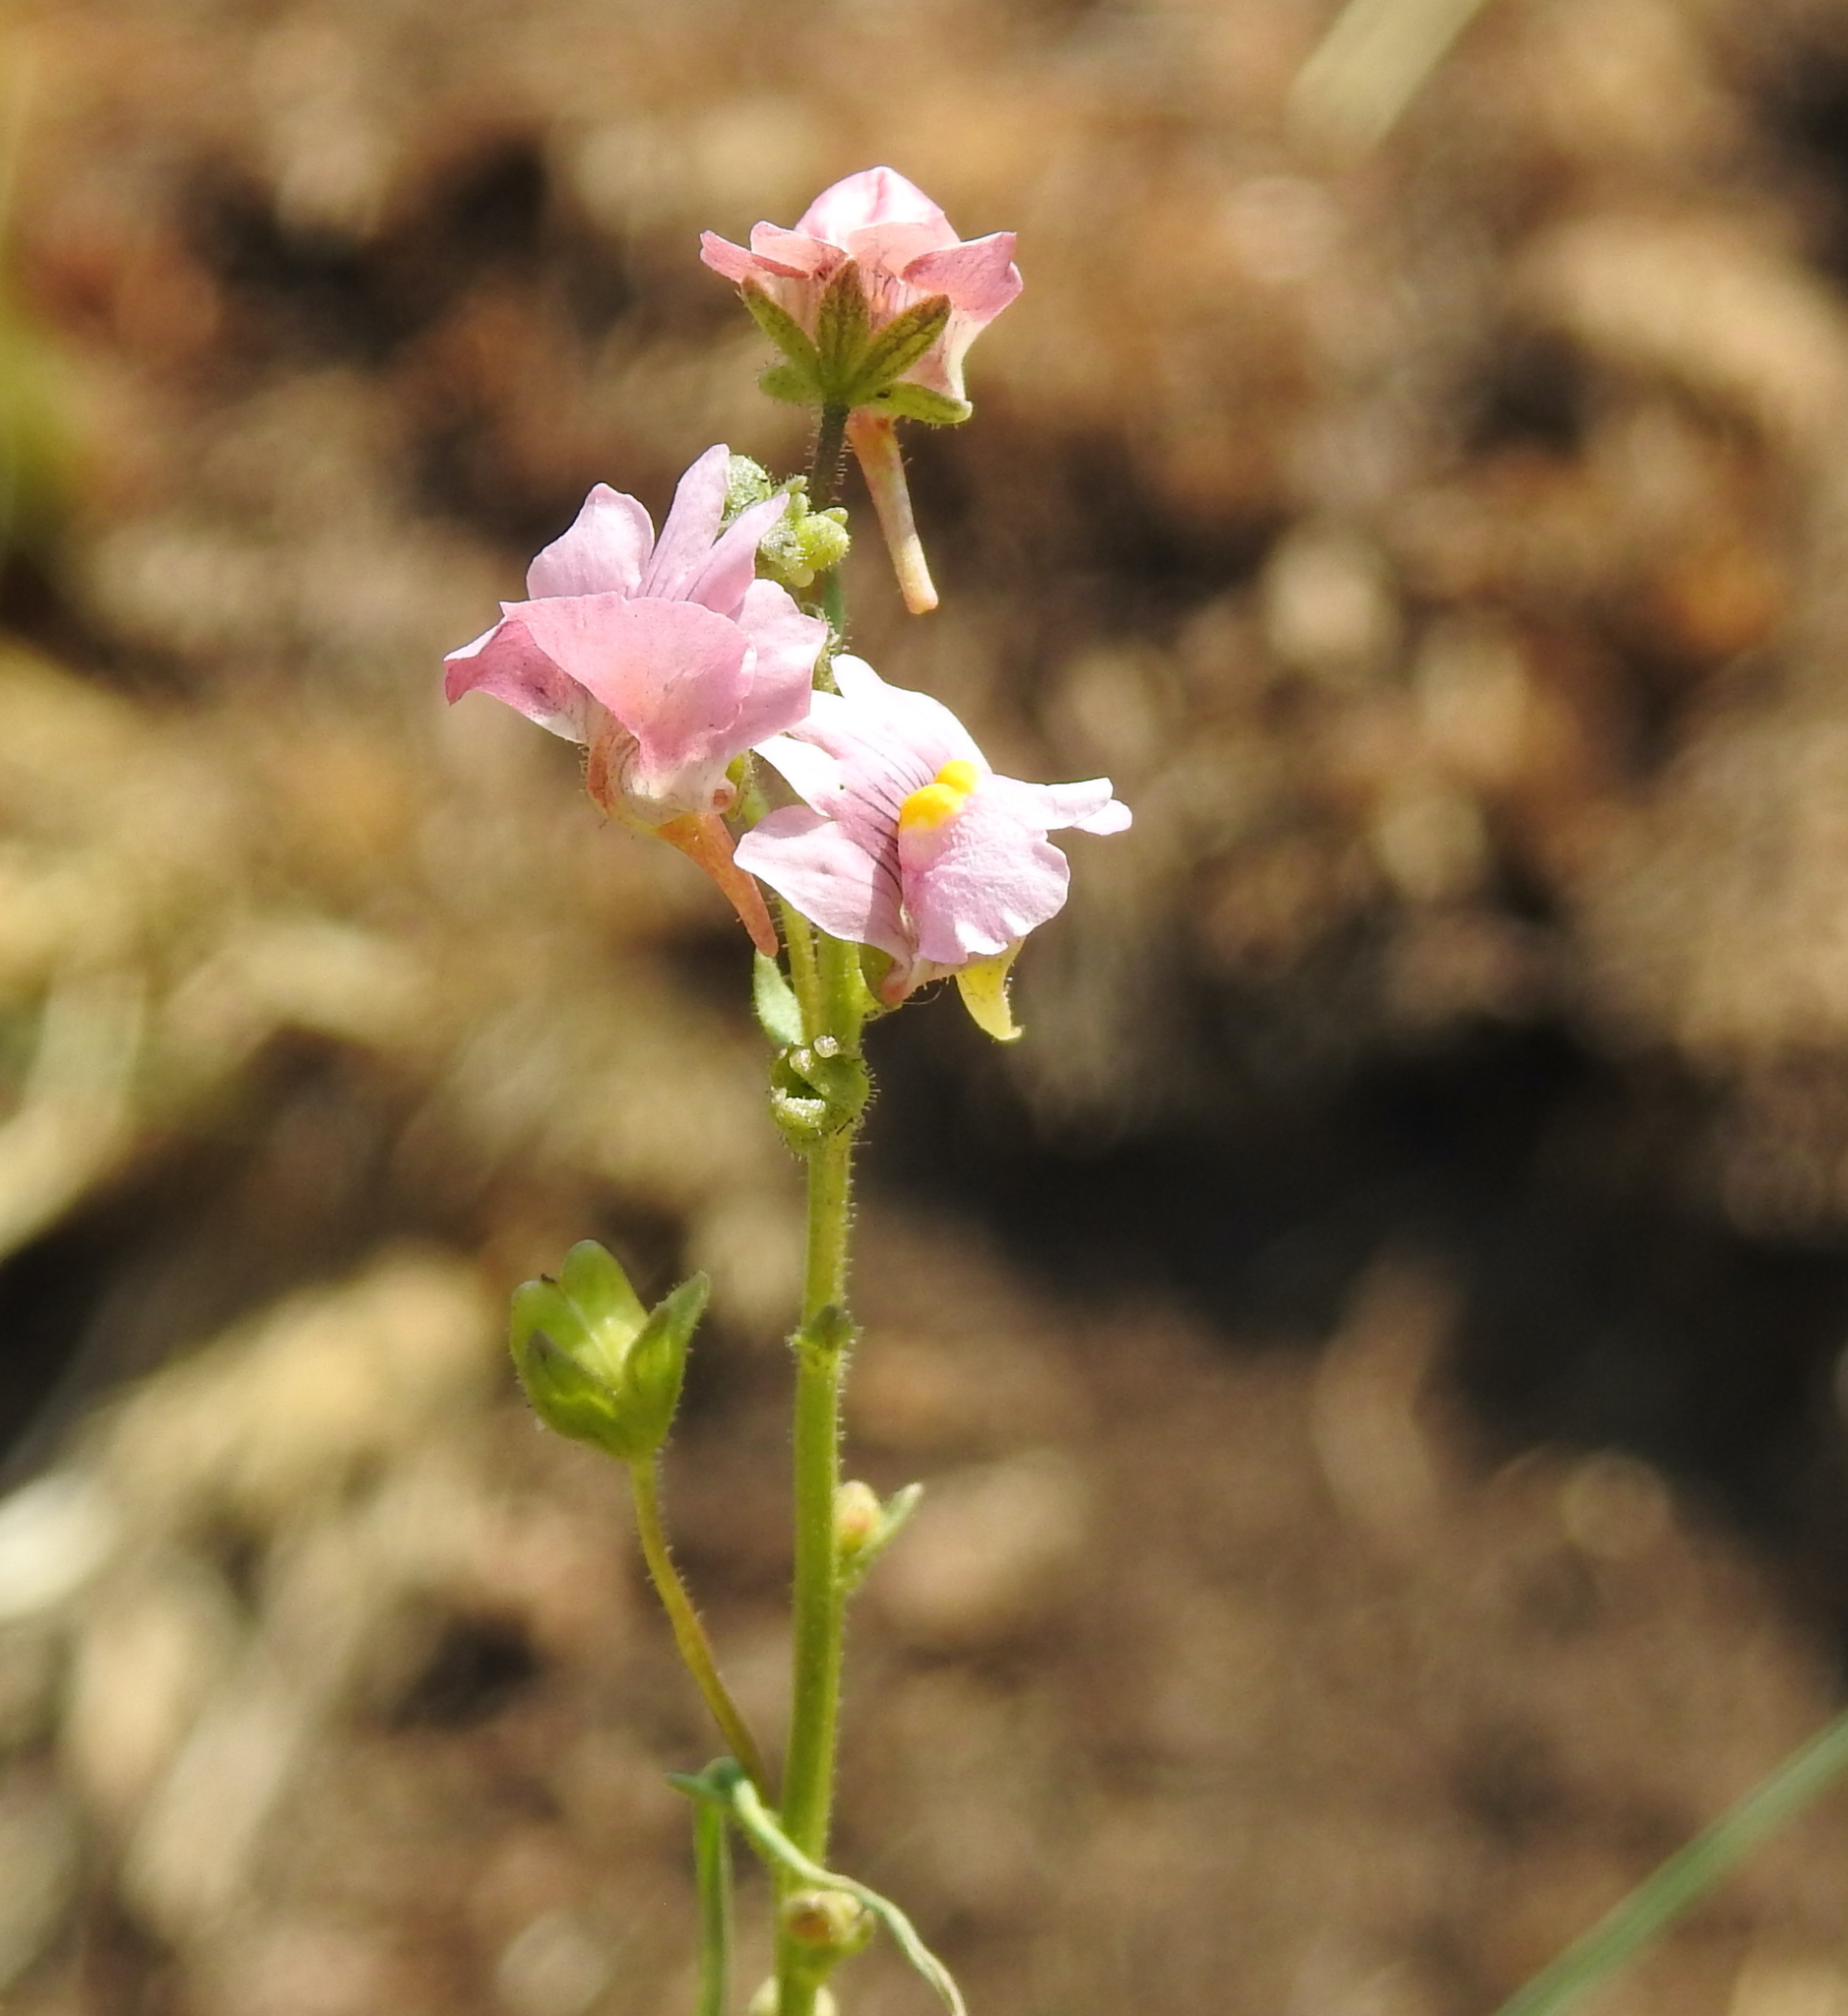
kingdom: Plantae
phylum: Tracheophyta
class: Magnoliopsida
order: Lamiales
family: Scrophulariaceae
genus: Nemesia
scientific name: Nemesia fruticans
